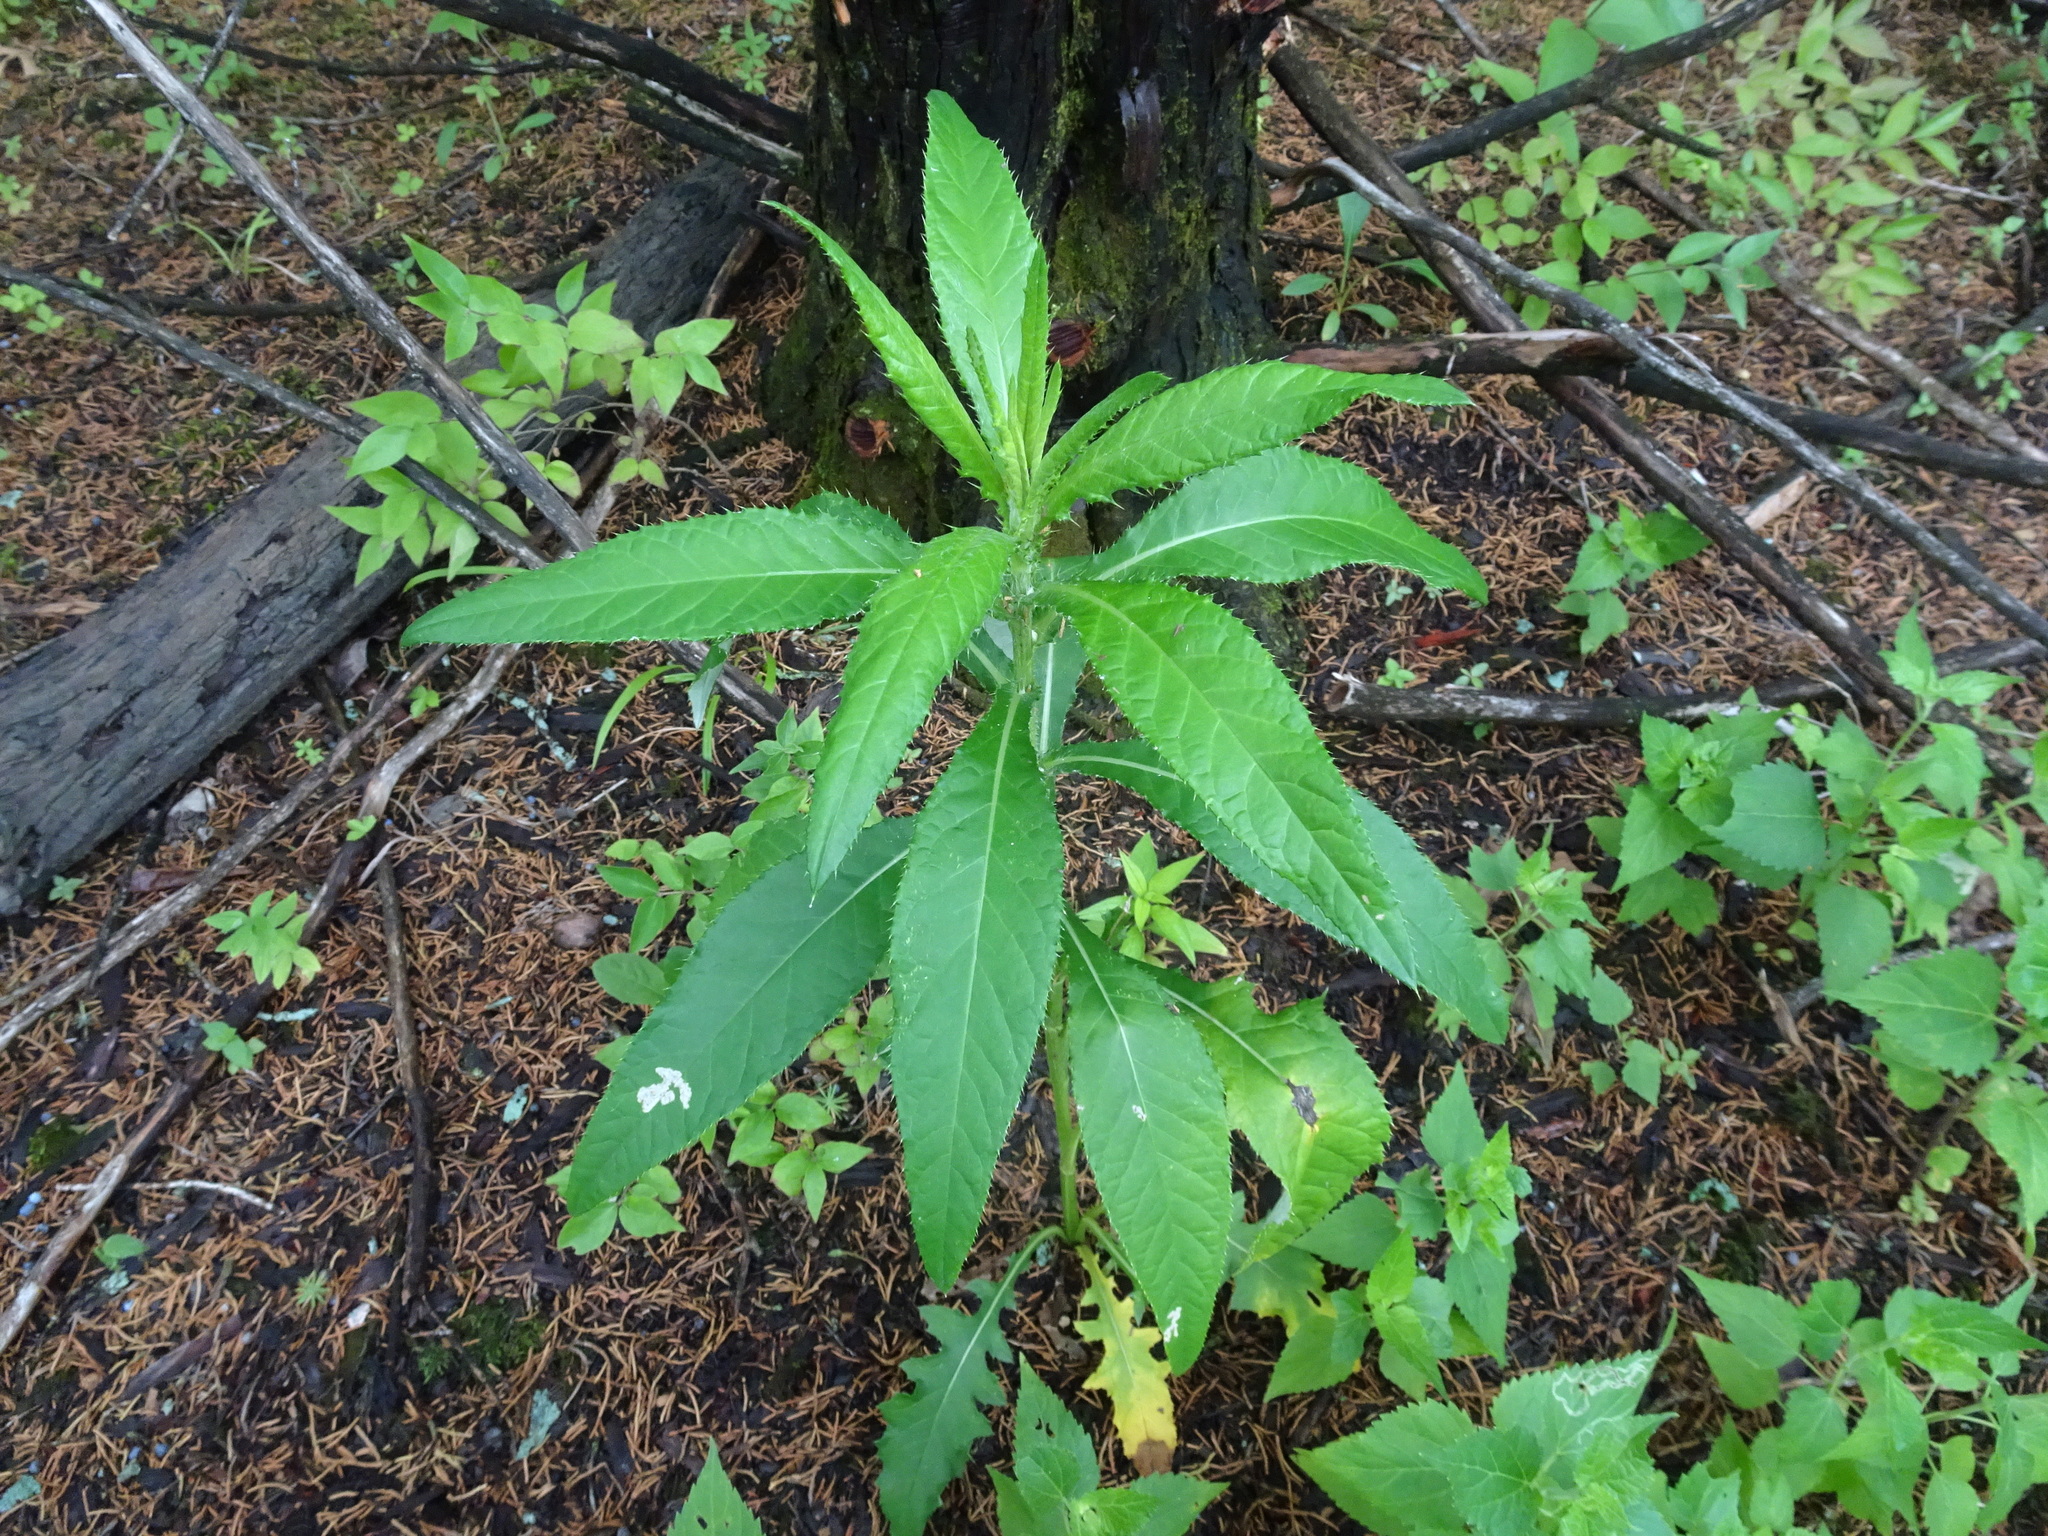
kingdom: Plantae
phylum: Tracheophyta
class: Magnoliopsida
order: Asterales
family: Asteraceae
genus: Cirsium
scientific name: Cirsium altissimum
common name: Roadside thistle
